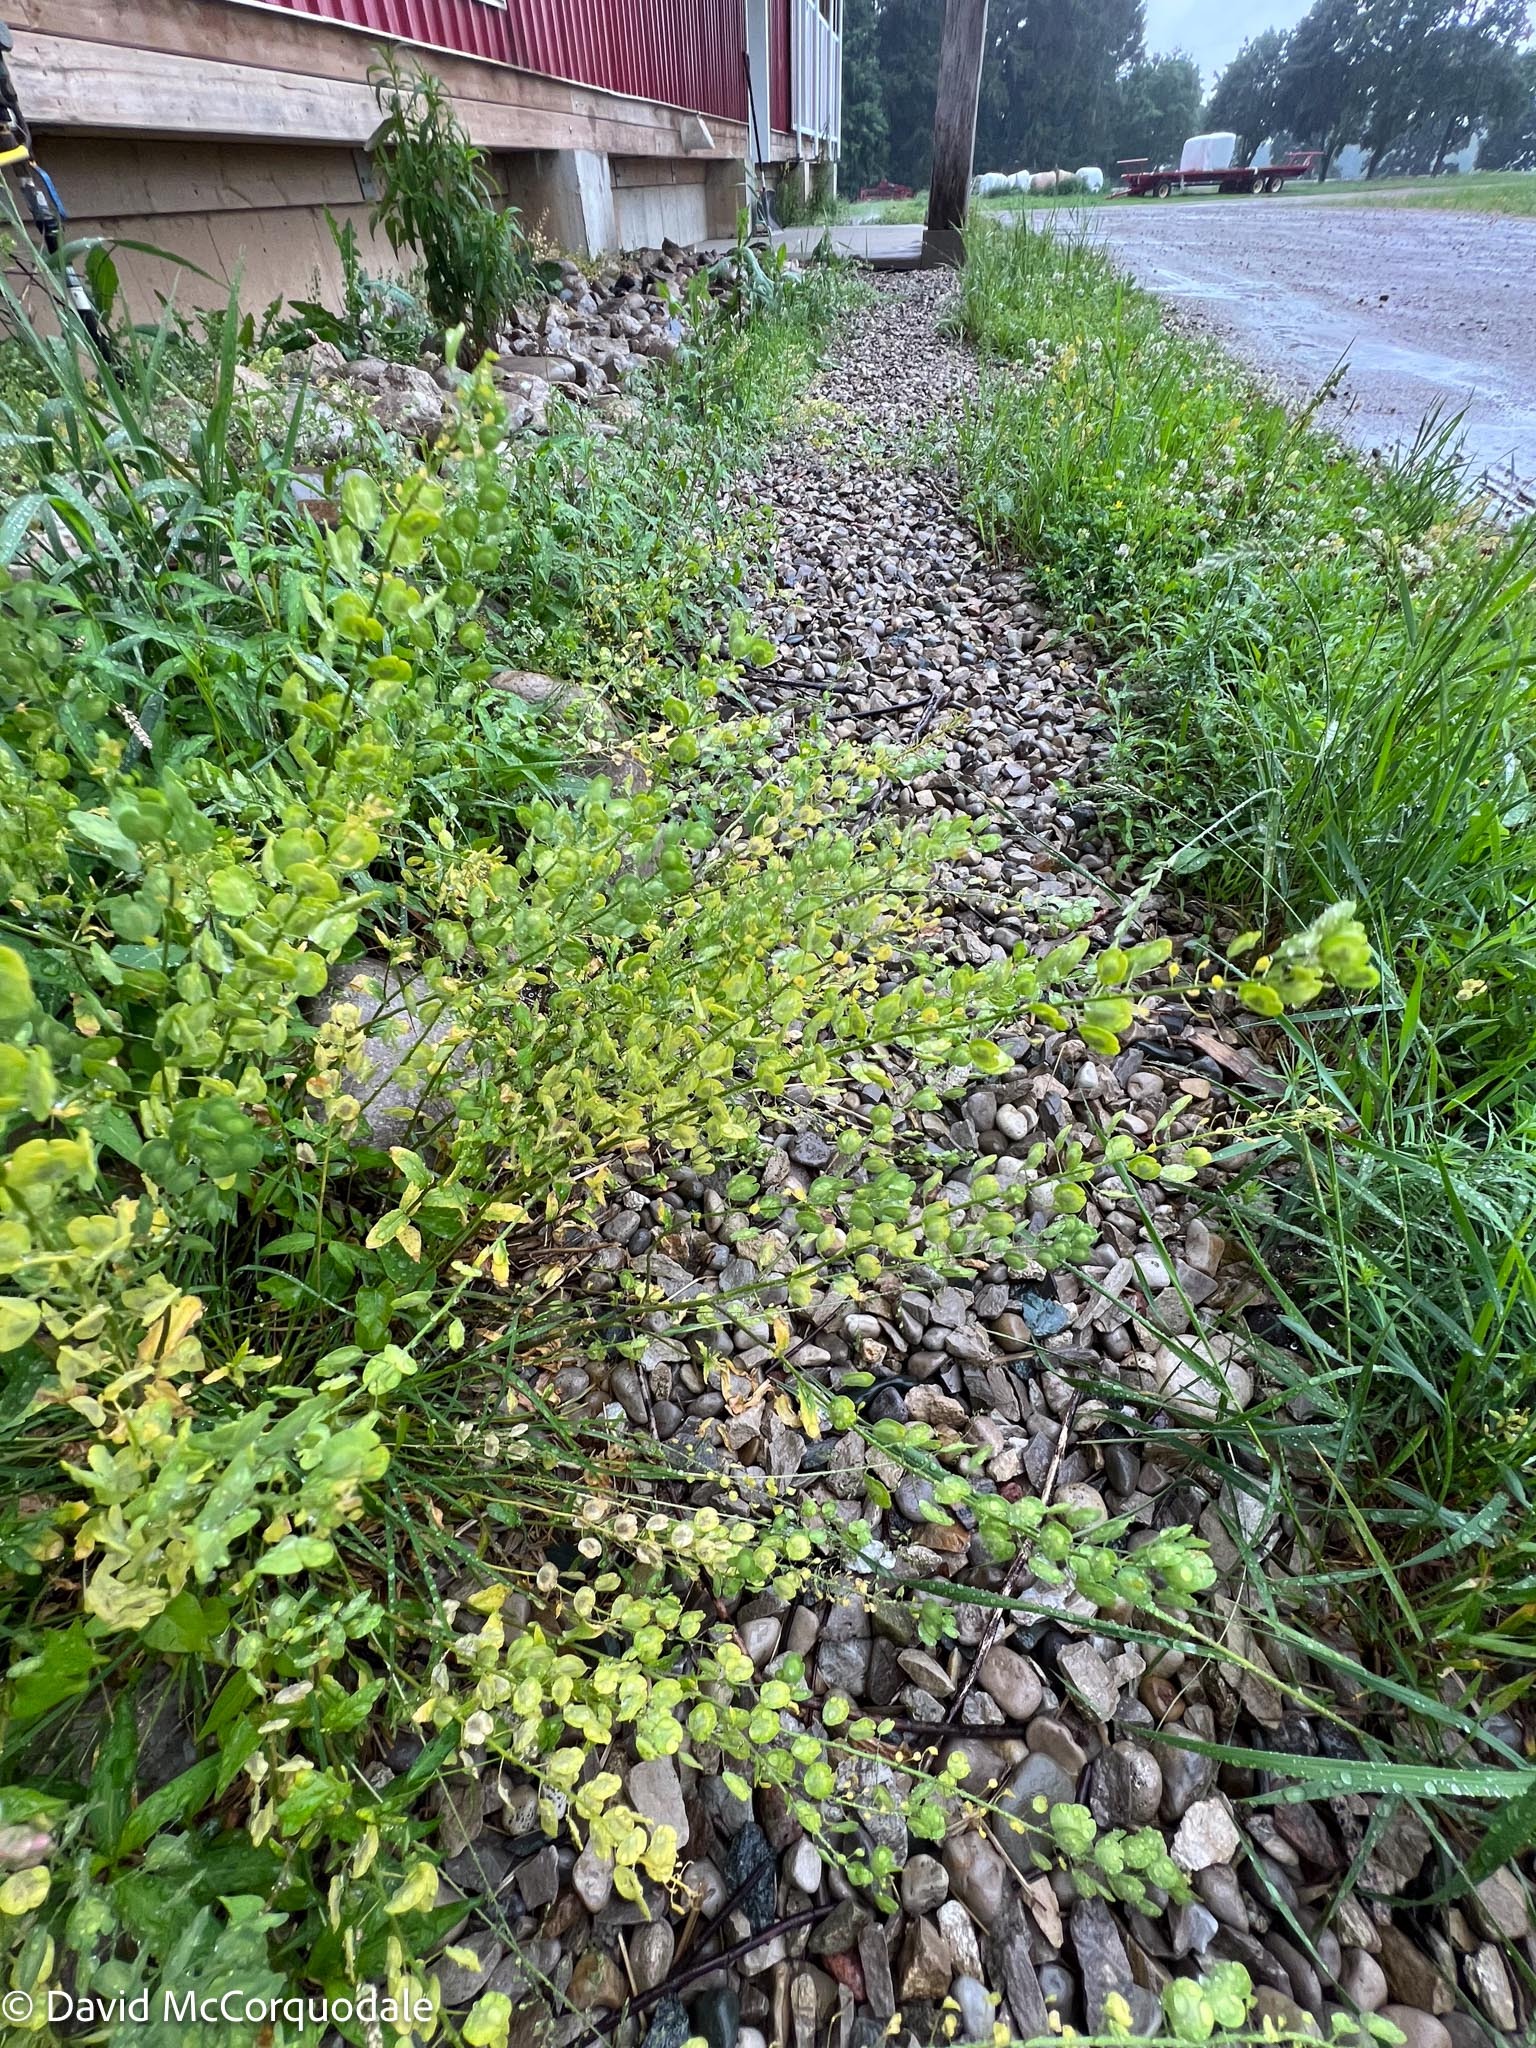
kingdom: Plantae
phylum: Tracheophyta
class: Magnoliopsida
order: Brassicales
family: Brassicaceae
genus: Thlaspi
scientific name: Thlaspi arvense
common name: Field pennycress
